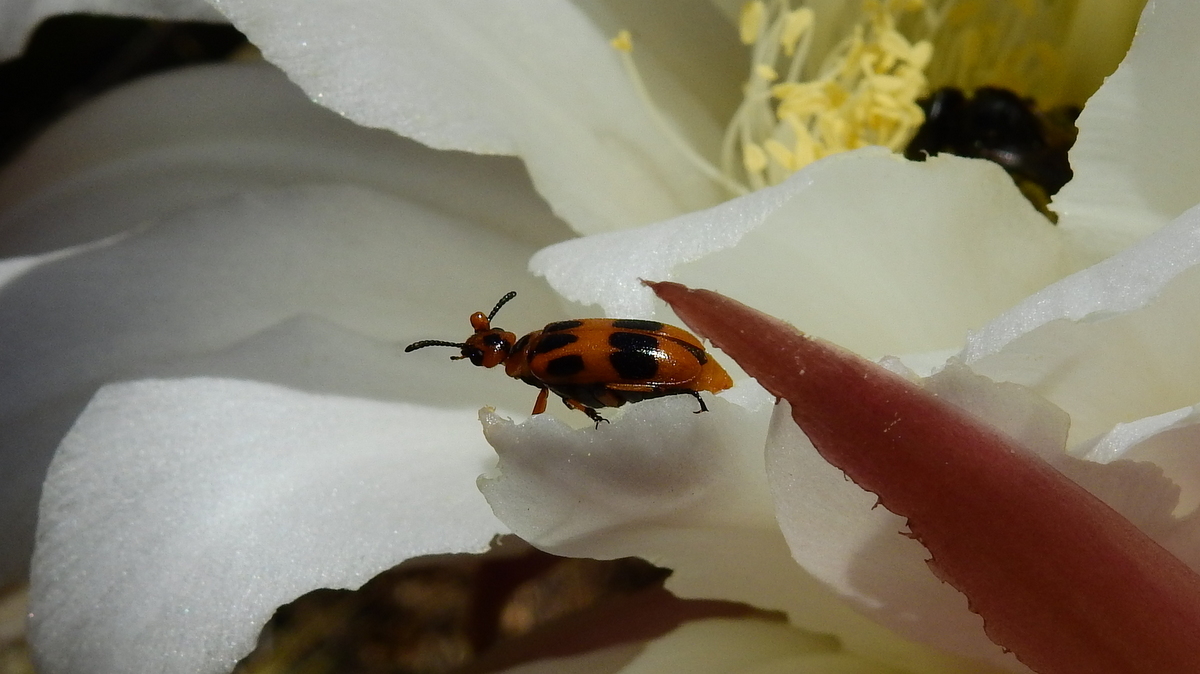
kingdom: Animalia
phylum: Arthropoda
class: Insecta
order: Coleoptera
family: Meloidae
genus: Tetraonyx
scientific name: Tetraonyx
